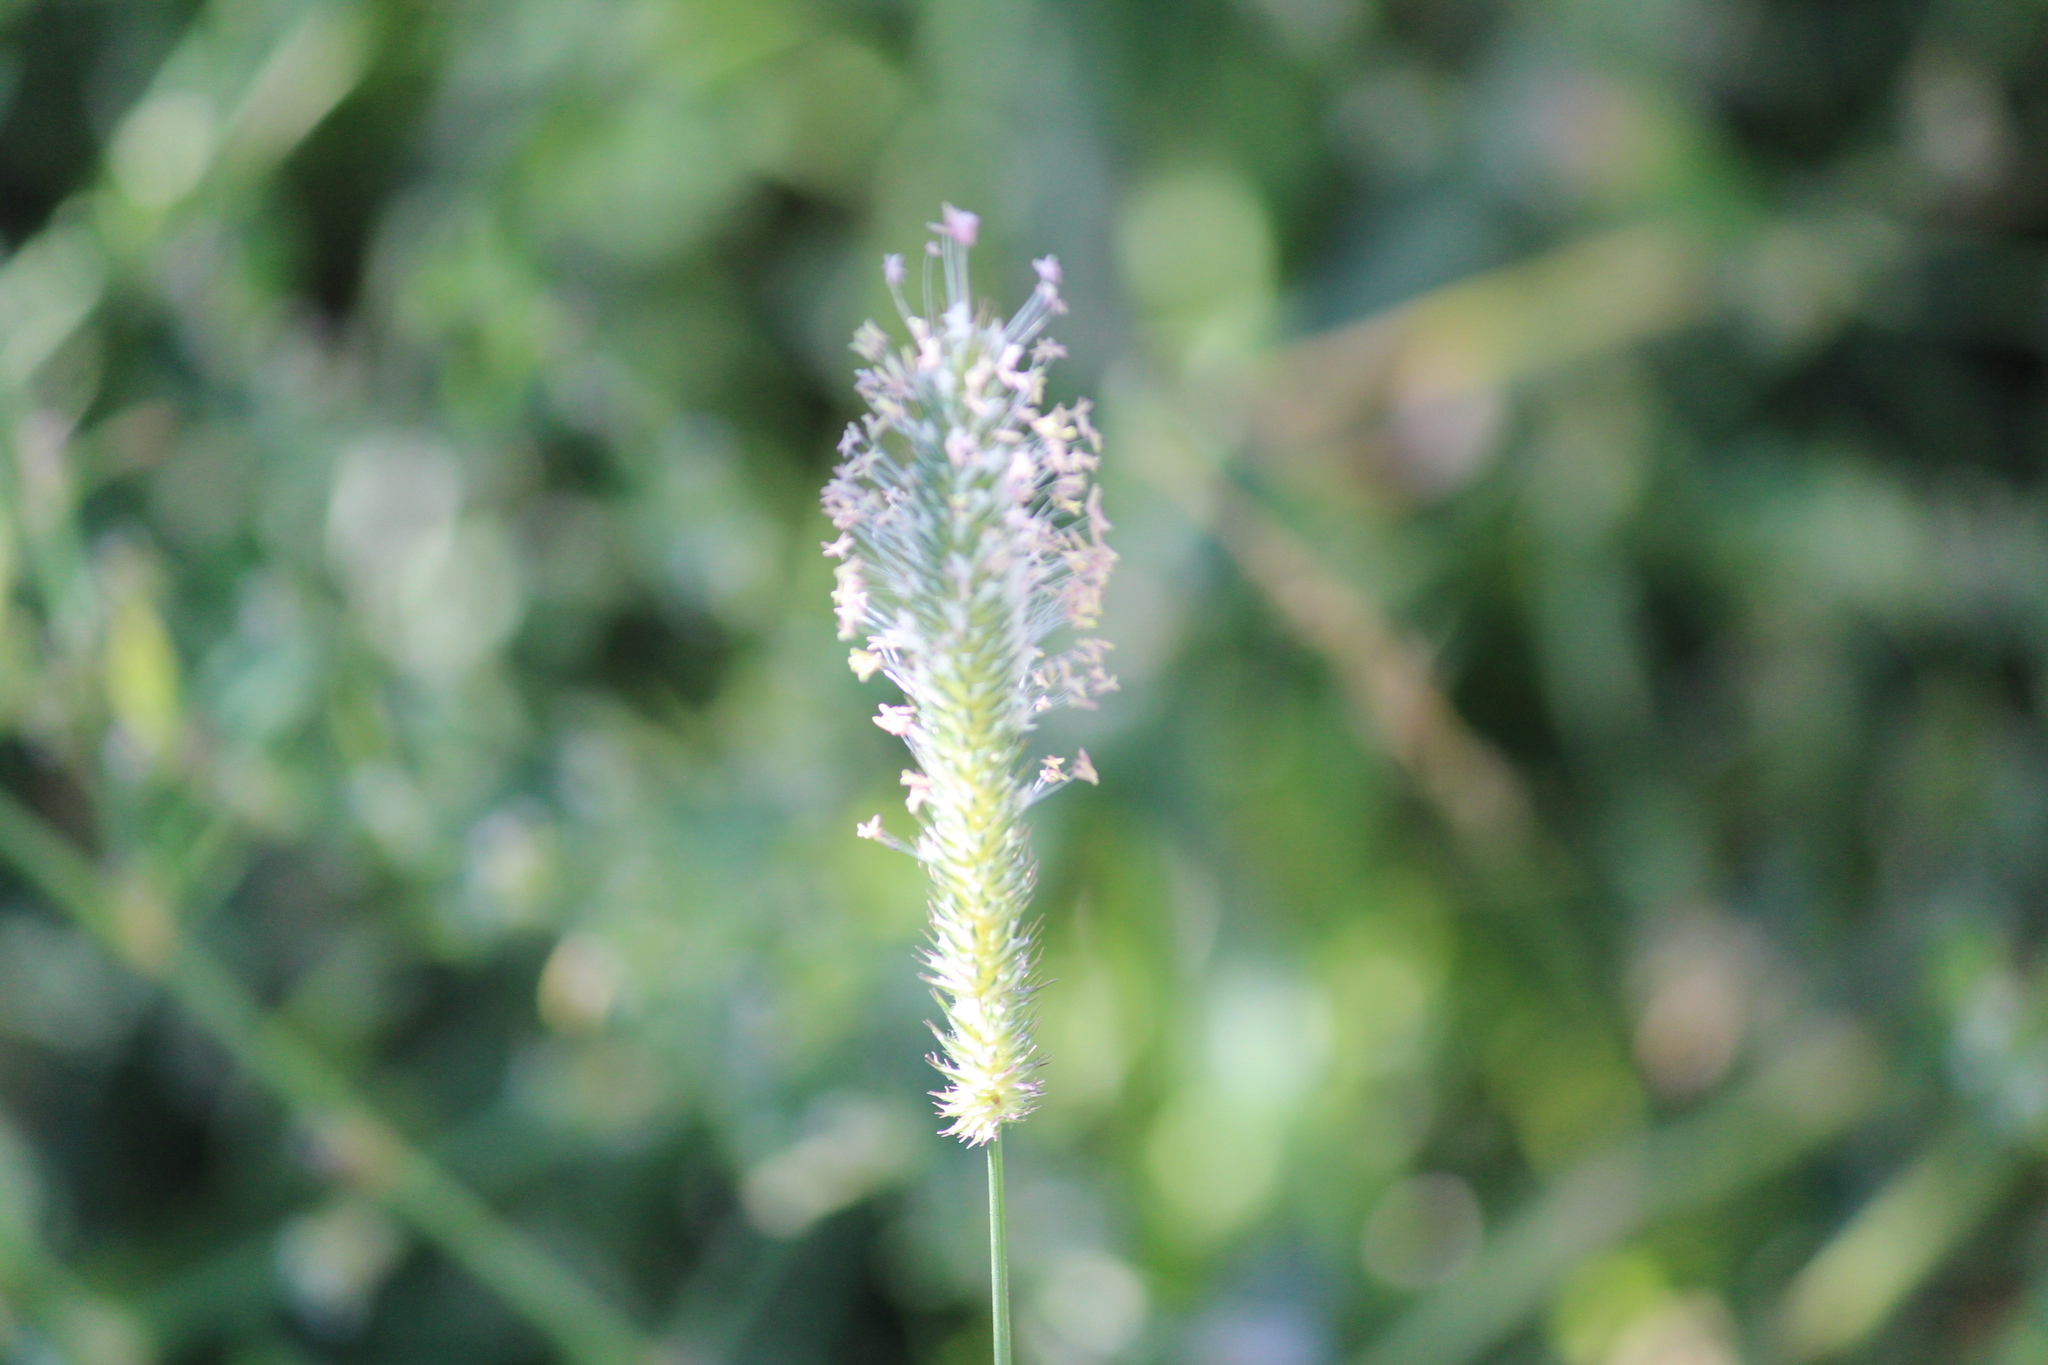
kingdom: Plantae
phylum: Tracheophyta
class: Liliopsida
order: Poales
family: Poaceae
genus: Phleum
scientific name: Phleum pratense
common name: Timothy grass
